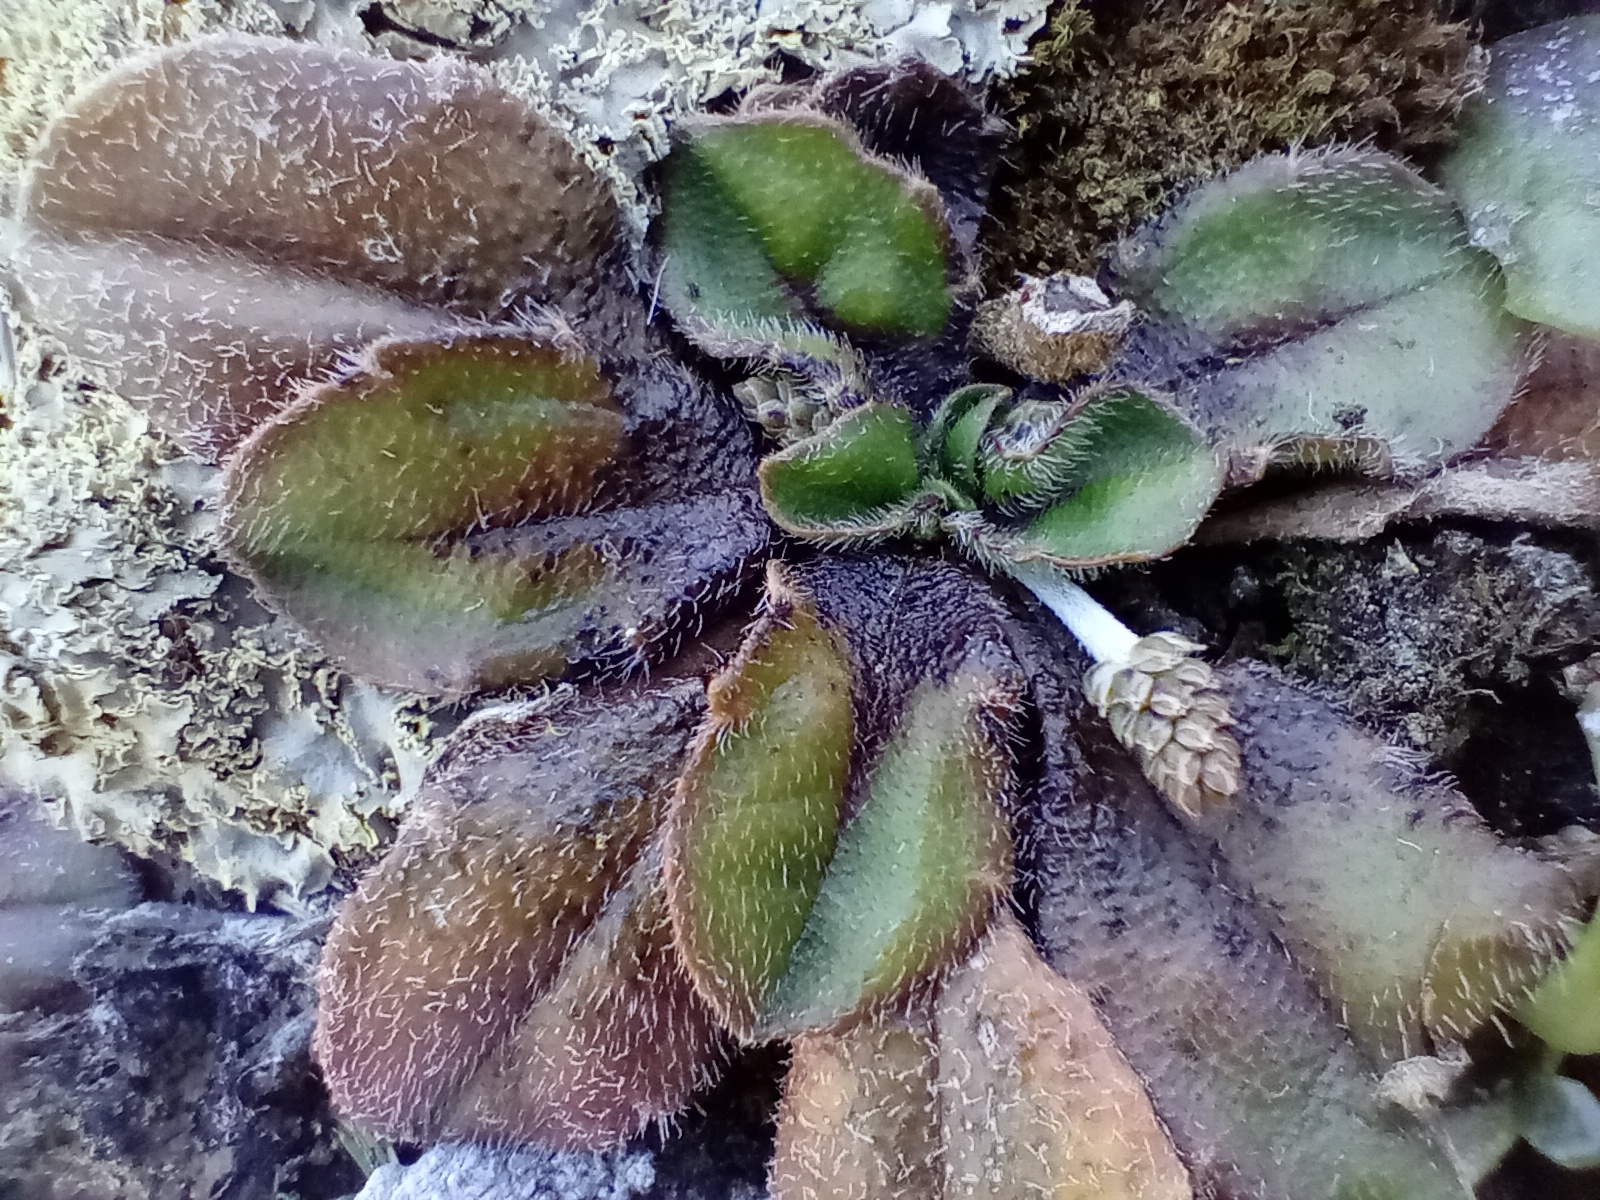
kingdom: Plantae
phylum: Tracheophyta
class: Magnoliopsida
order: Lamiales
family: Plantaginaceae
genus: Plantago
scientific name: Plantago raoulii
